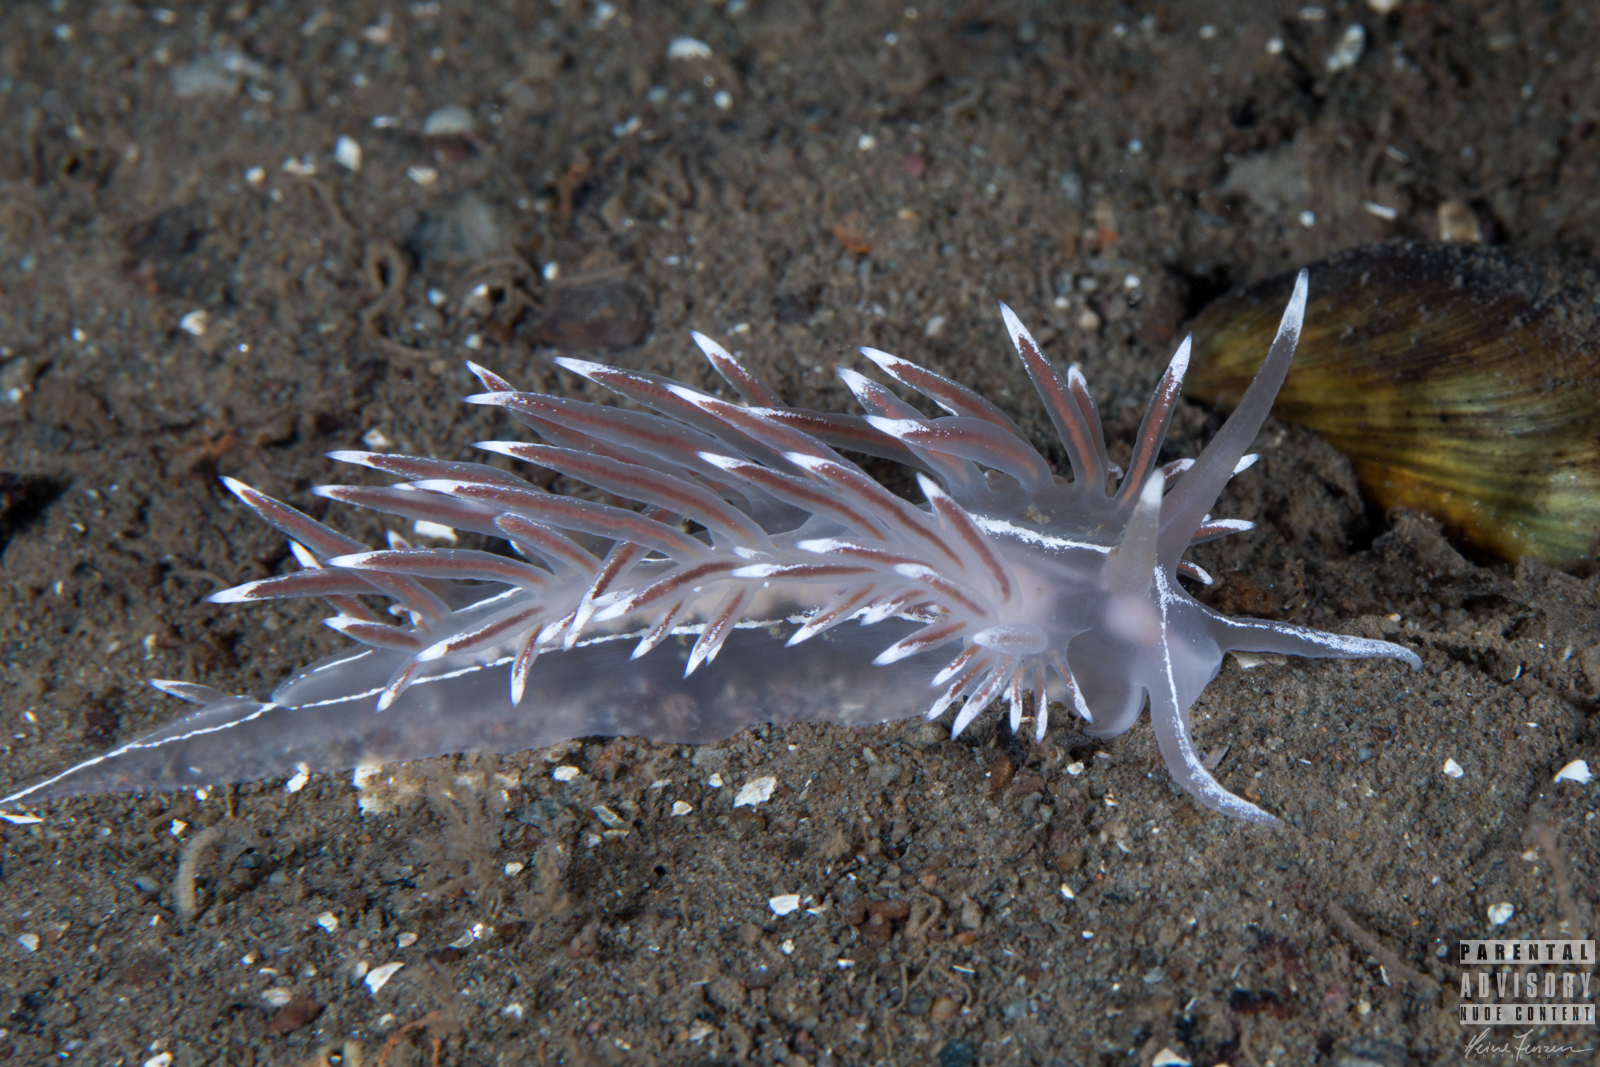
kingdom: Animalia
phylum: Mollusca
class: Gastropoda
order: Nudibranchia
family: Coryphellidae
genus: Coryphella
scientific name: Coryphella lineata
